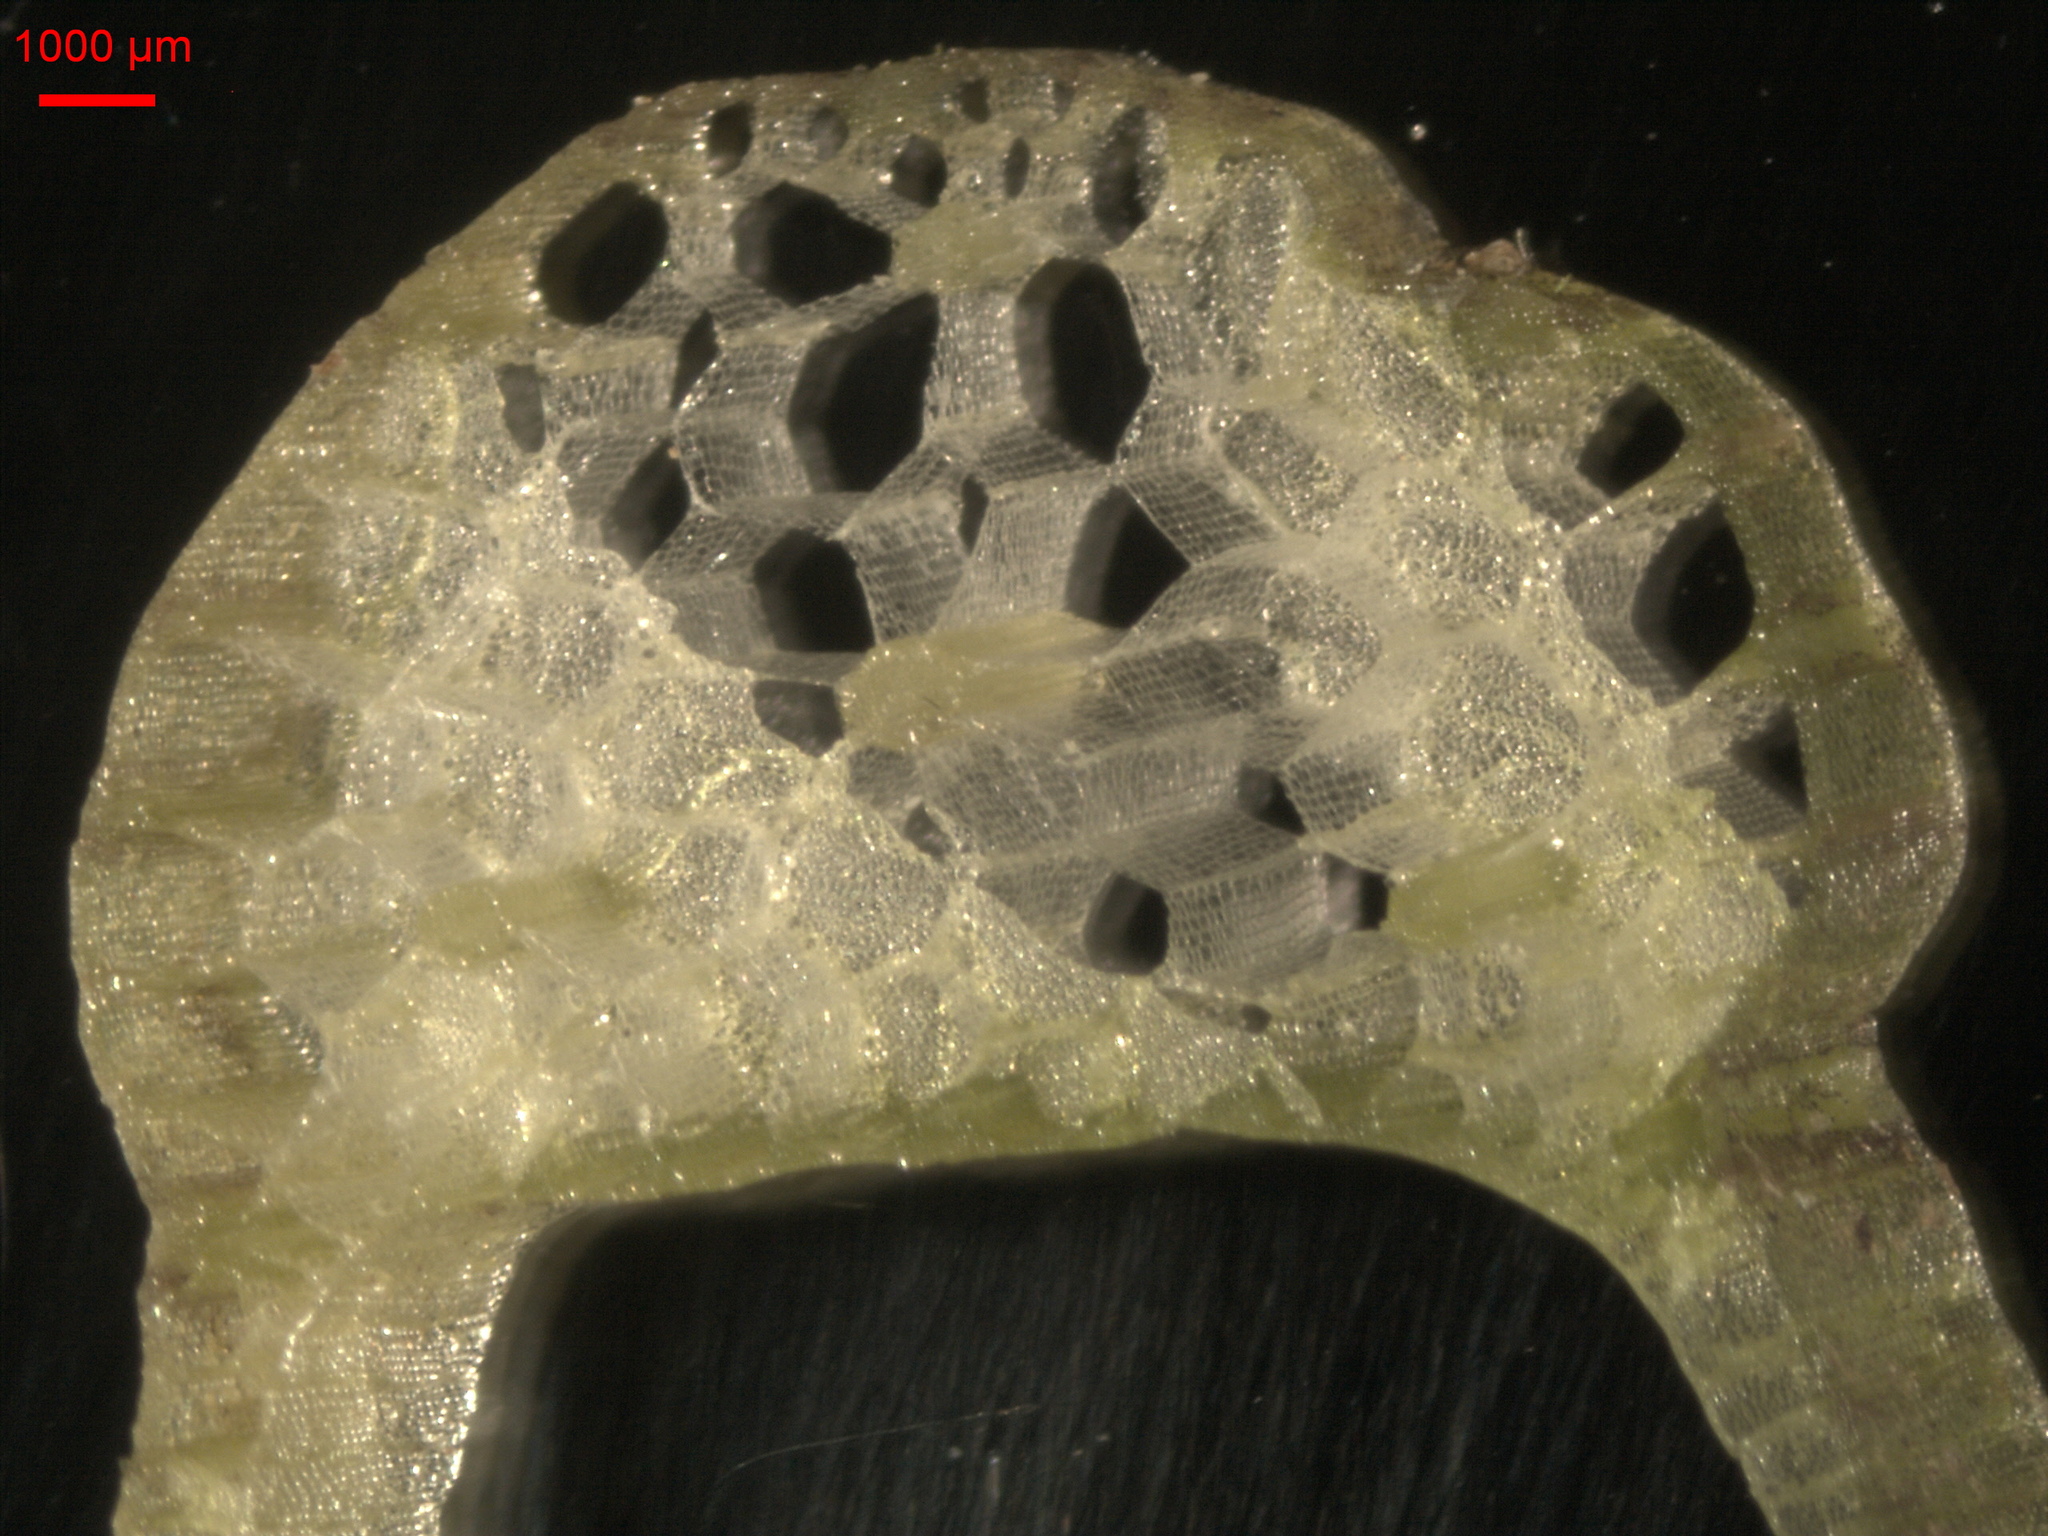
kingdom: Plantae
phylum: Tracheophyta
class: Liliopsida
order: Alismatales
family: Alismataceae
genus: Sagittaria
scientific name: Sagittaria sagittifolia
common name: Arrowhead
